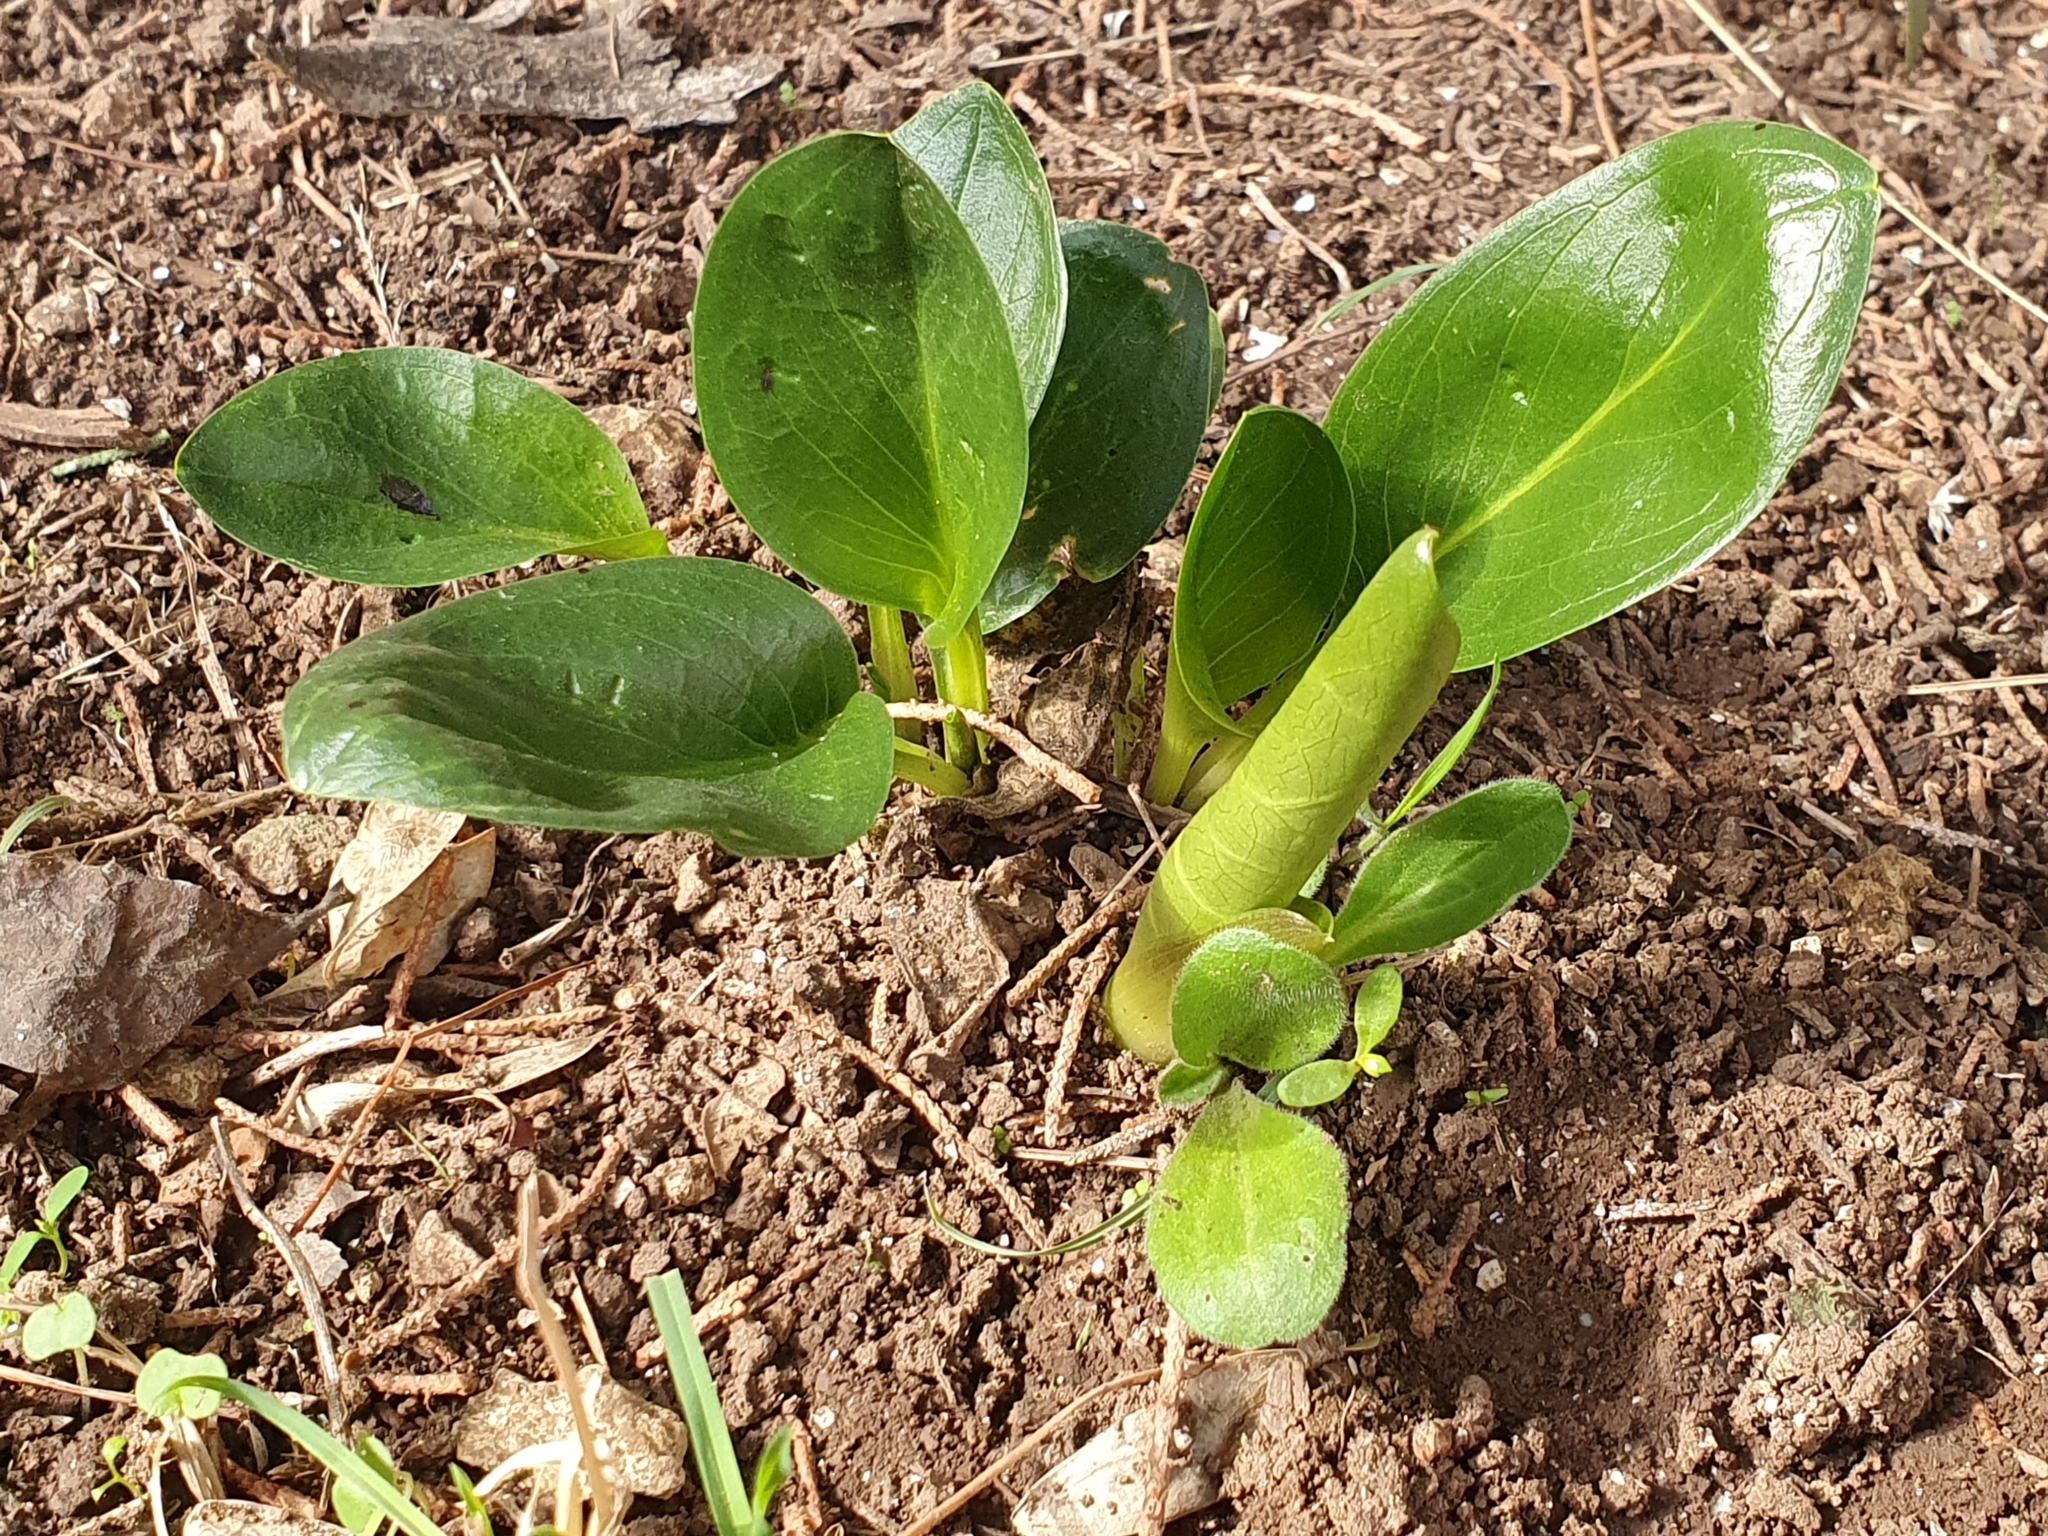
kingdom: Plantae
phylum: Tracheophyta
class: Liliopsida
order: Alismatales
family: Araceae
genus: Biarum
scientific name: Biarum dispar
